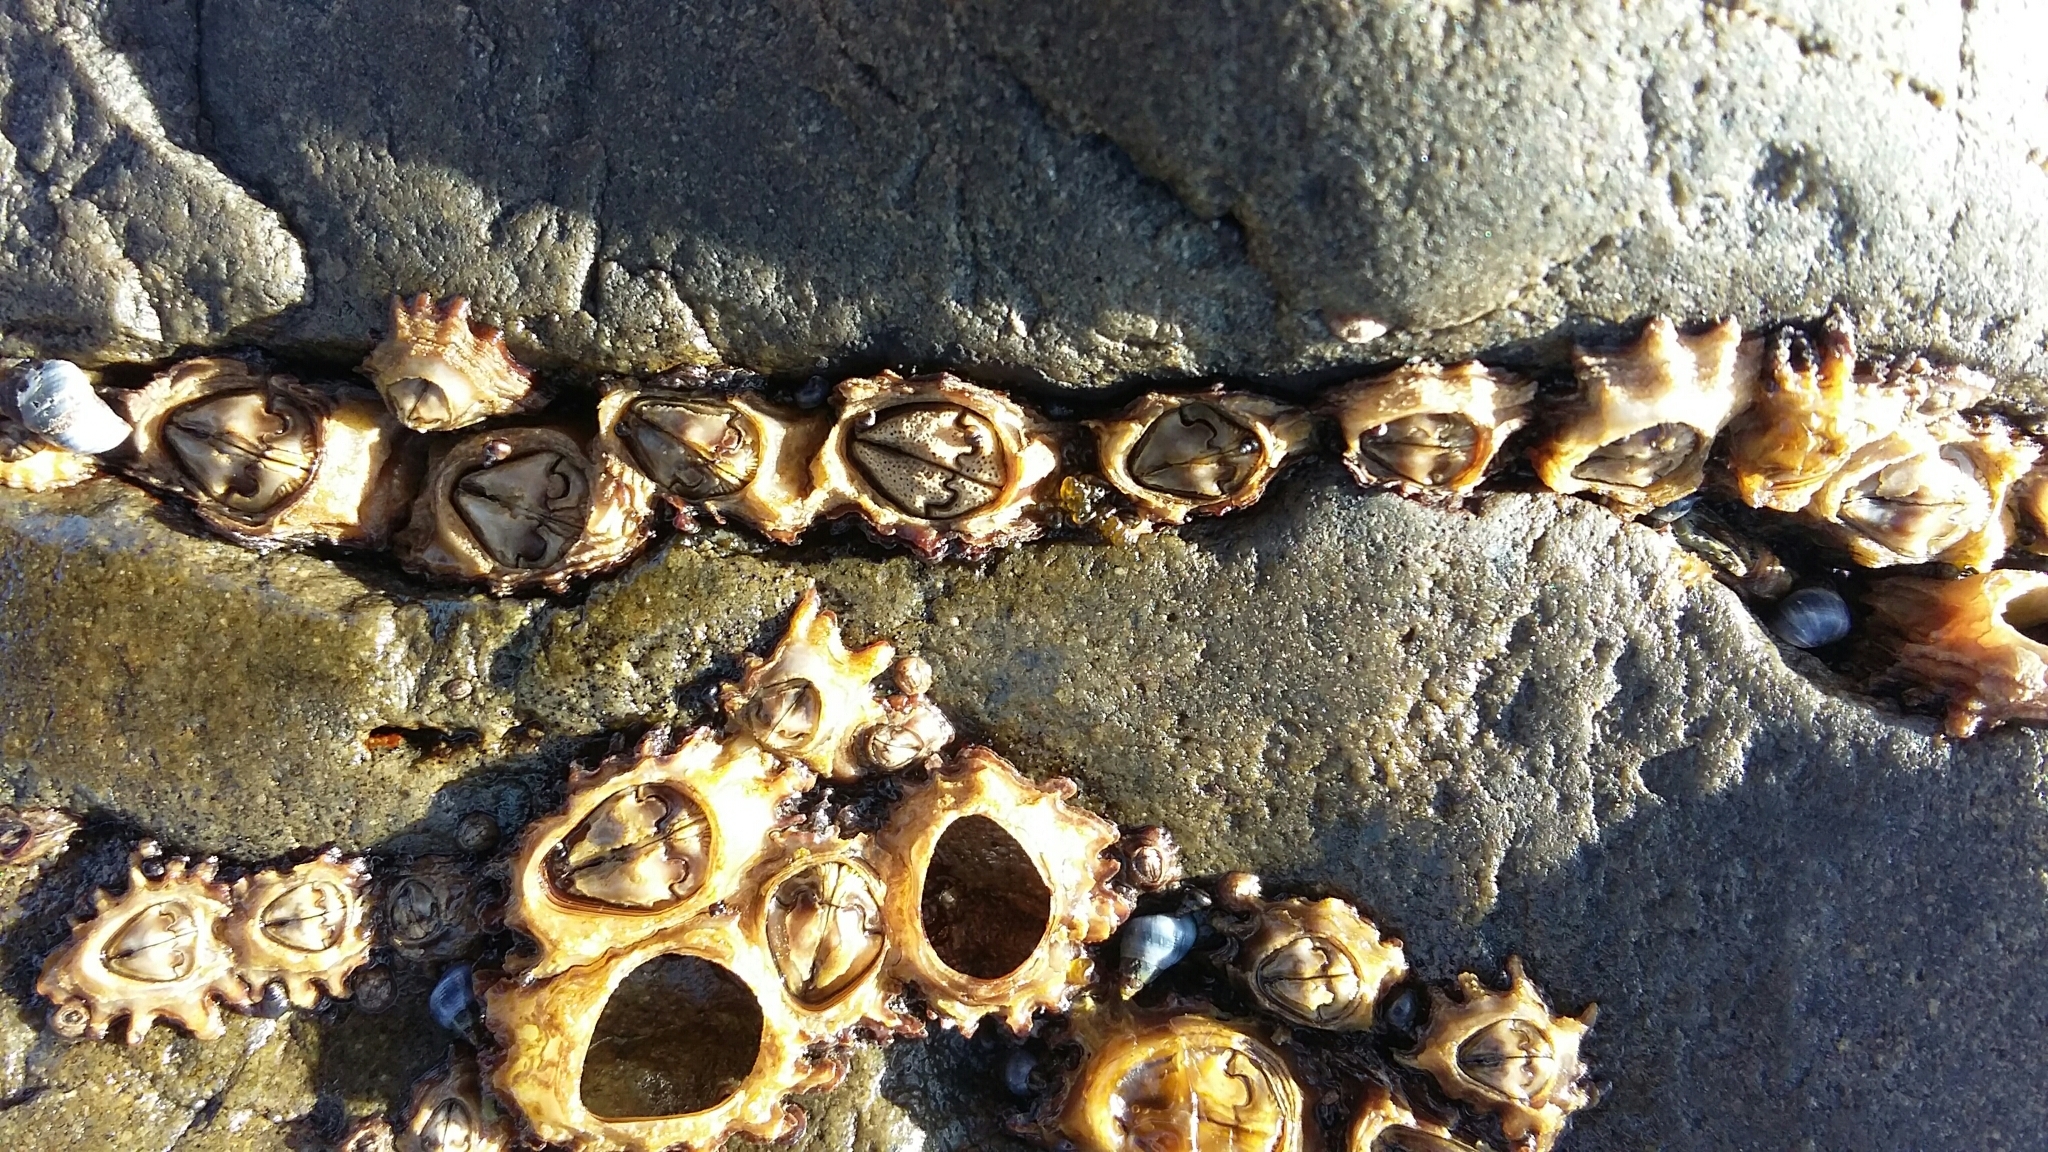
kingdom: Animalia
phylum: Arthropoda
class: Maxillopoda
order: Sessilia
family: Chthamalidae
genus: Chamaesipho
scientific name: Chamaesipho brunnea
